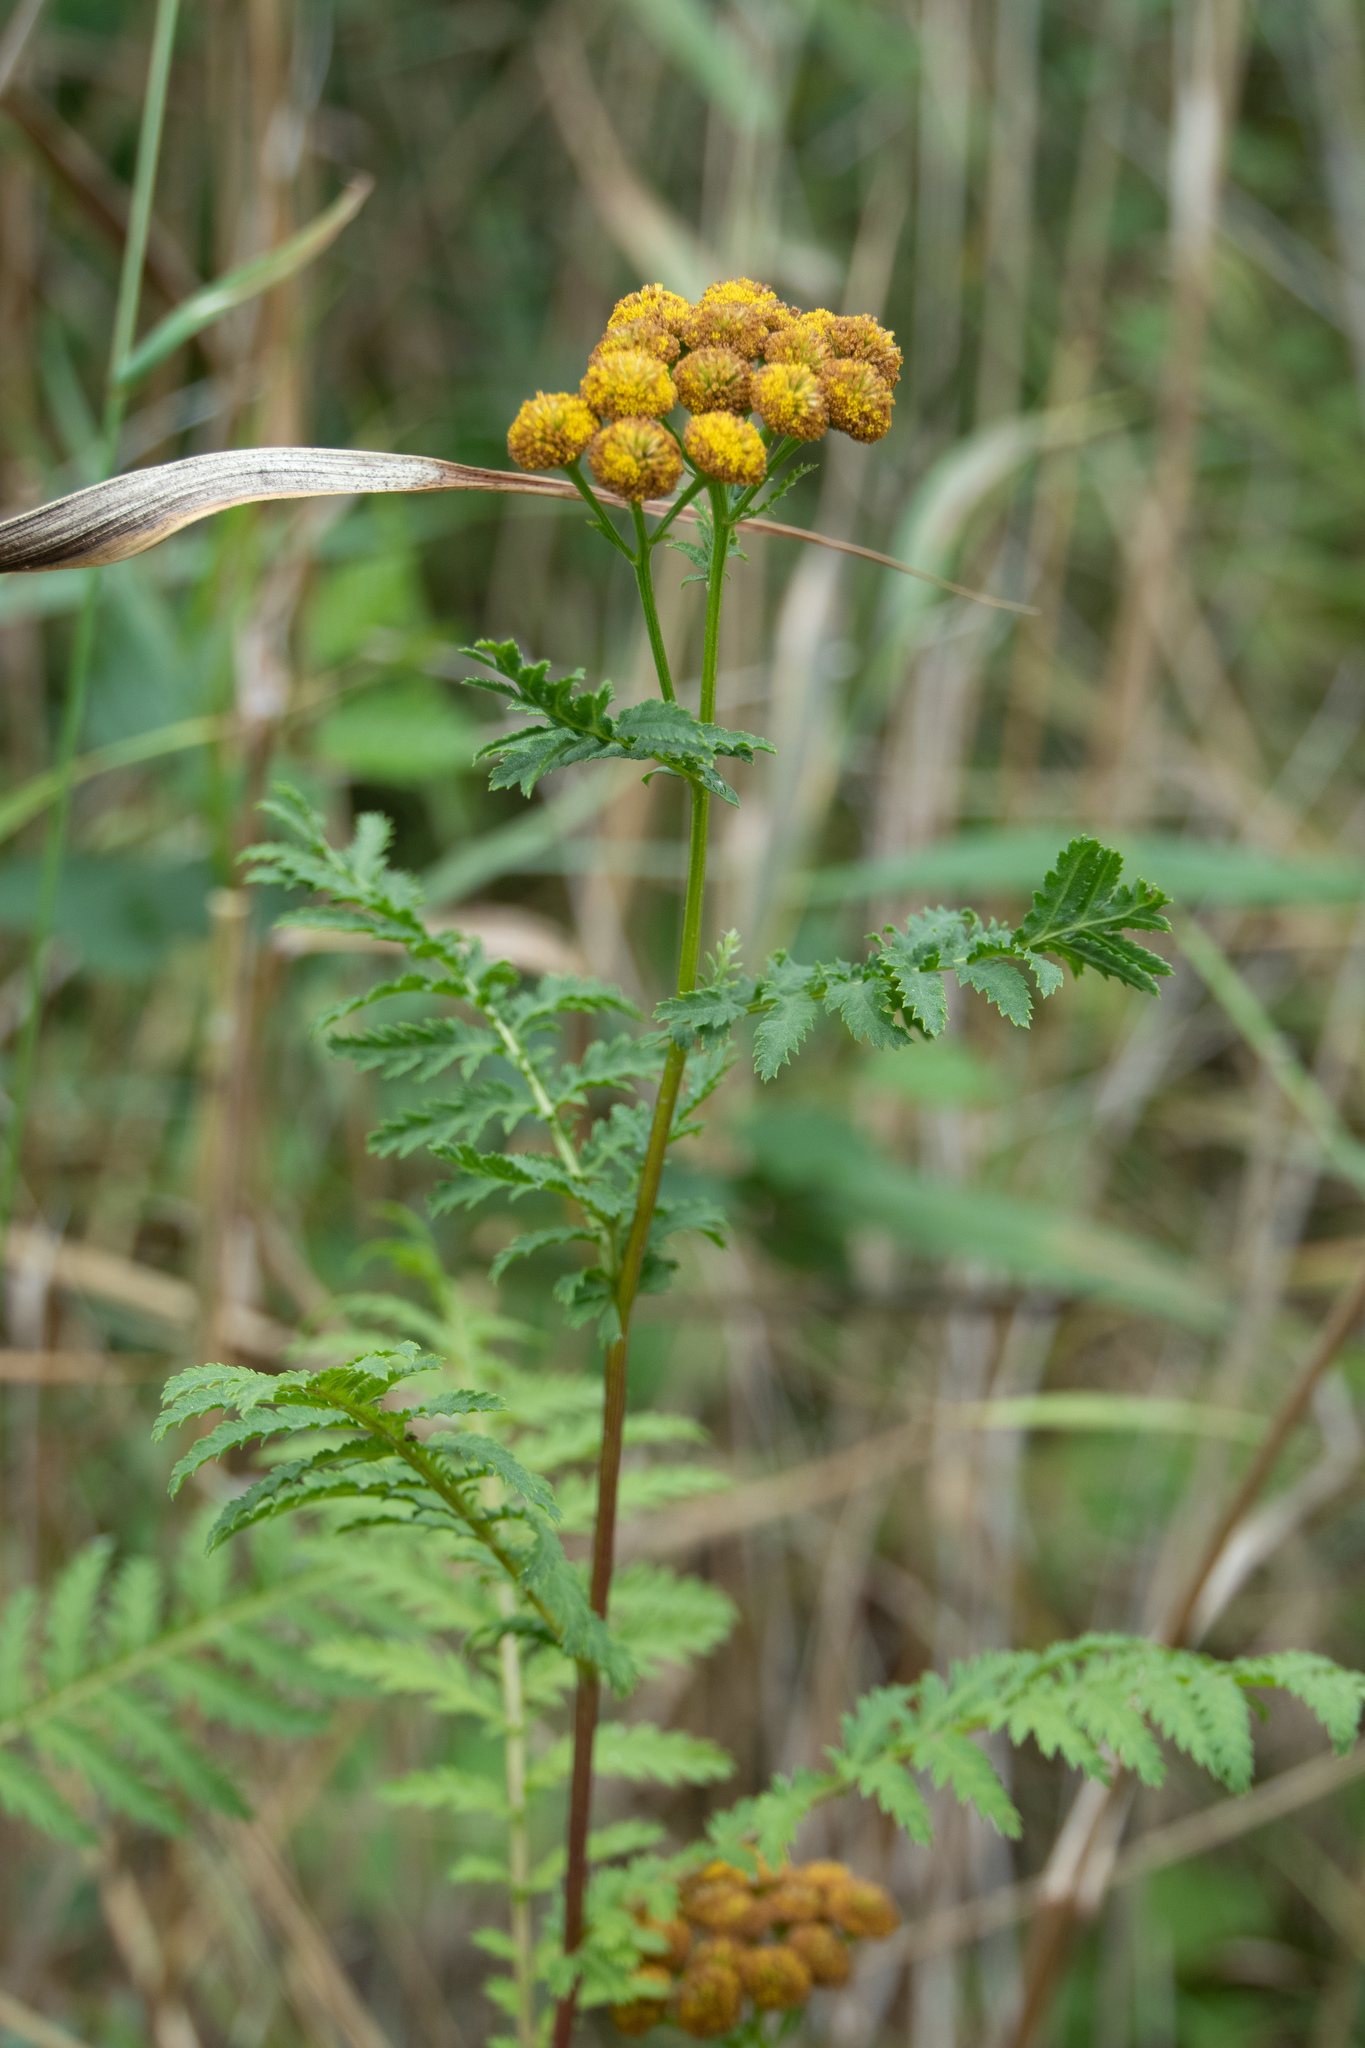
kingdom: Plantae
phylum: Tracheophyta
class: Magnoliopsida
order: Asterales
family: Asteraceae
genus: Tanacetum
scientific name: Tanacetum vulgare
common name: Common tansy
